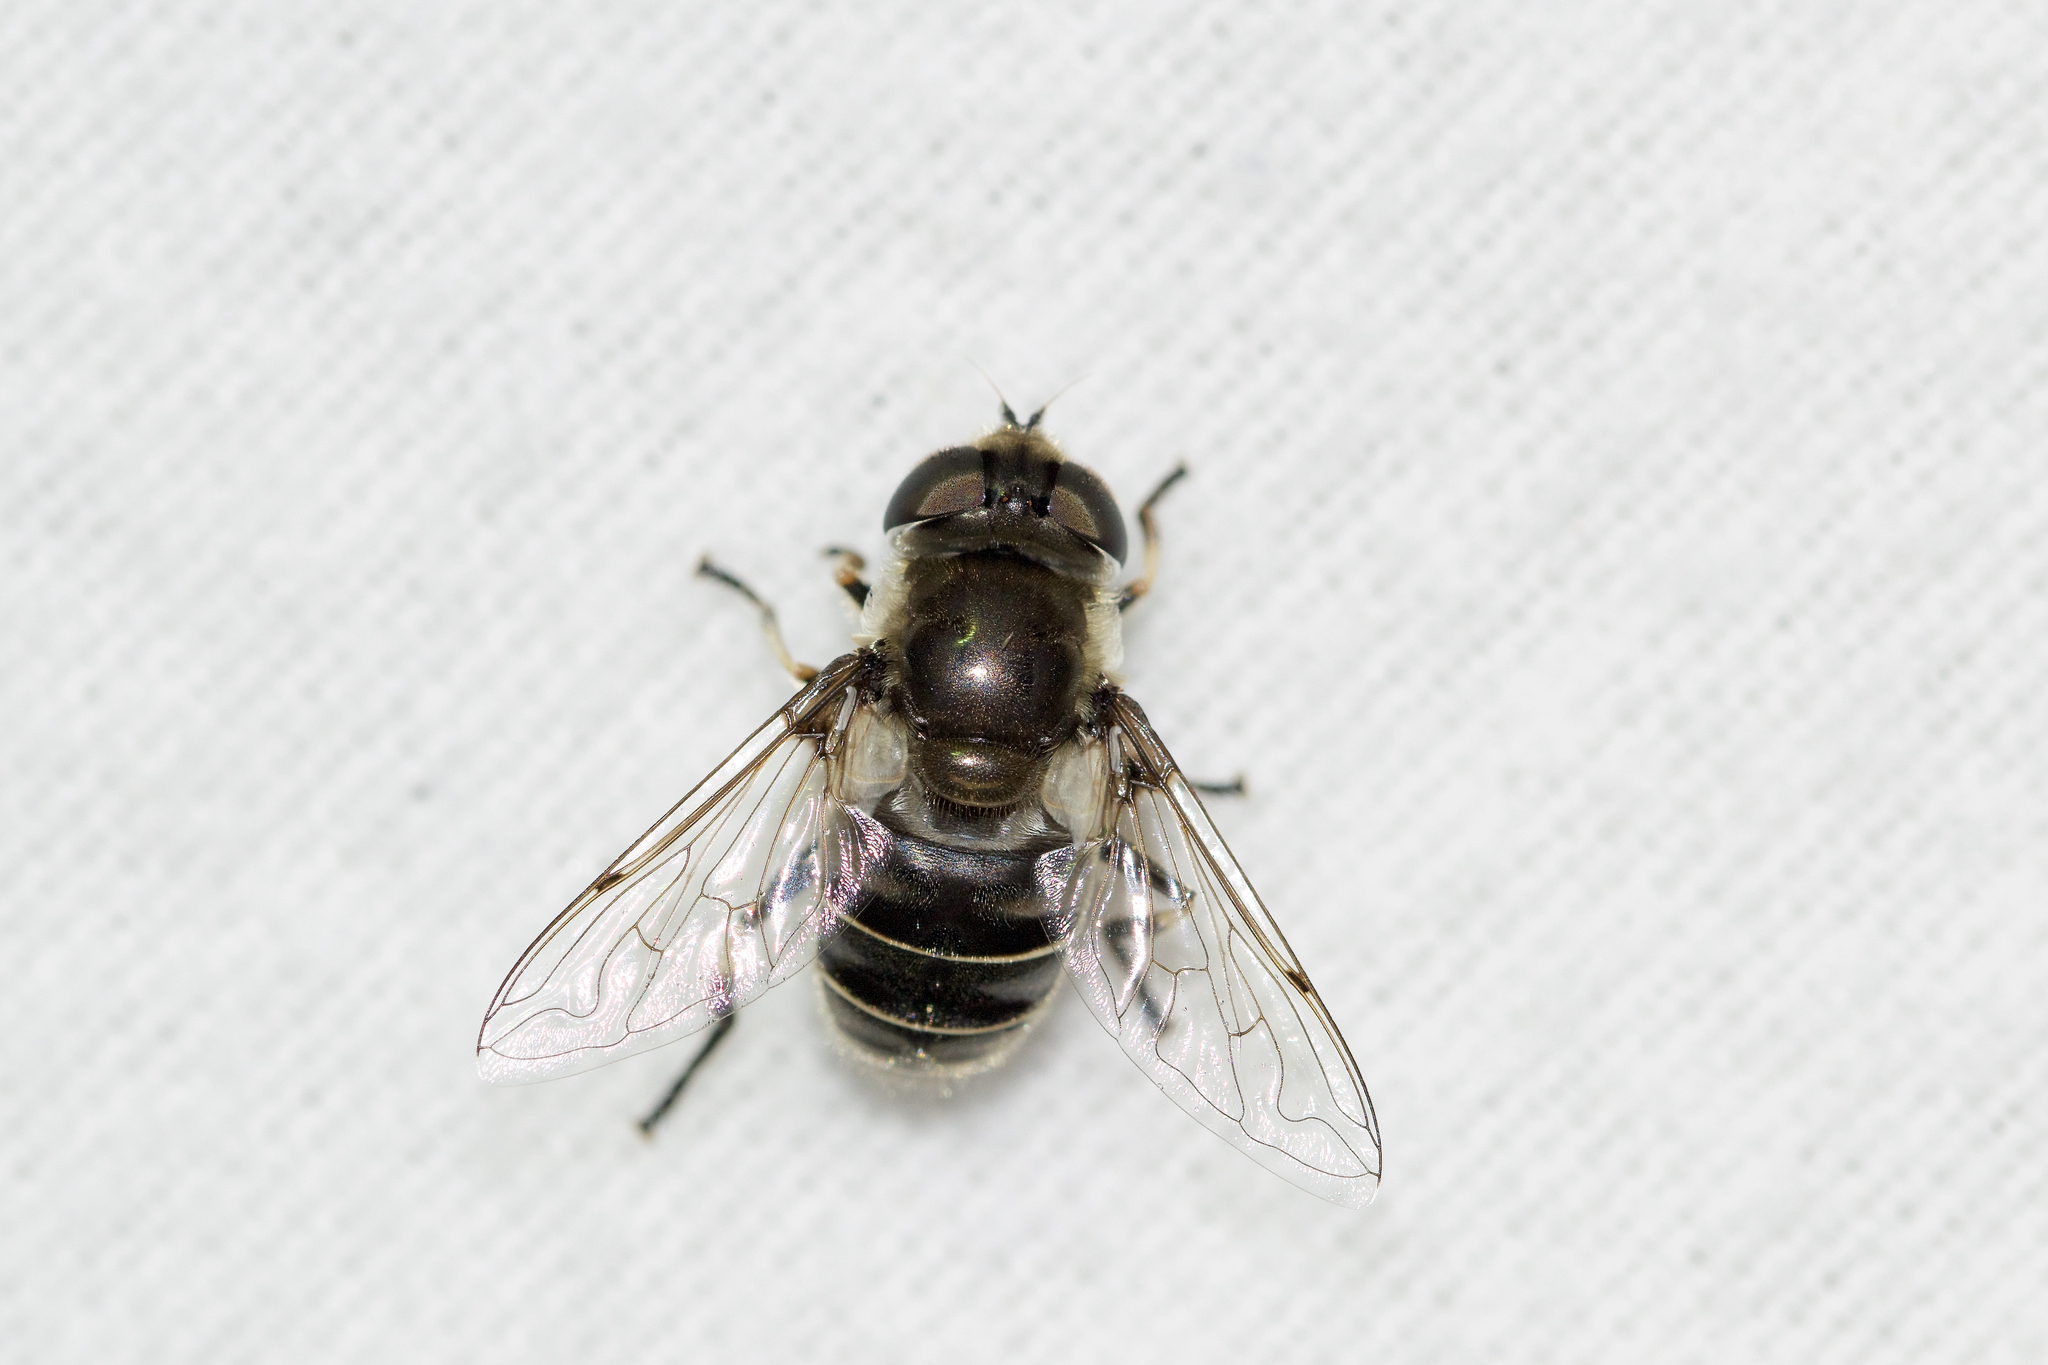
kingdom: Animalia
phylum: Arthropoda
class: Insecta
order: Diptera
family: Syrphidae
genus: Eristalis
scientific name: Eristalis dimidiata
